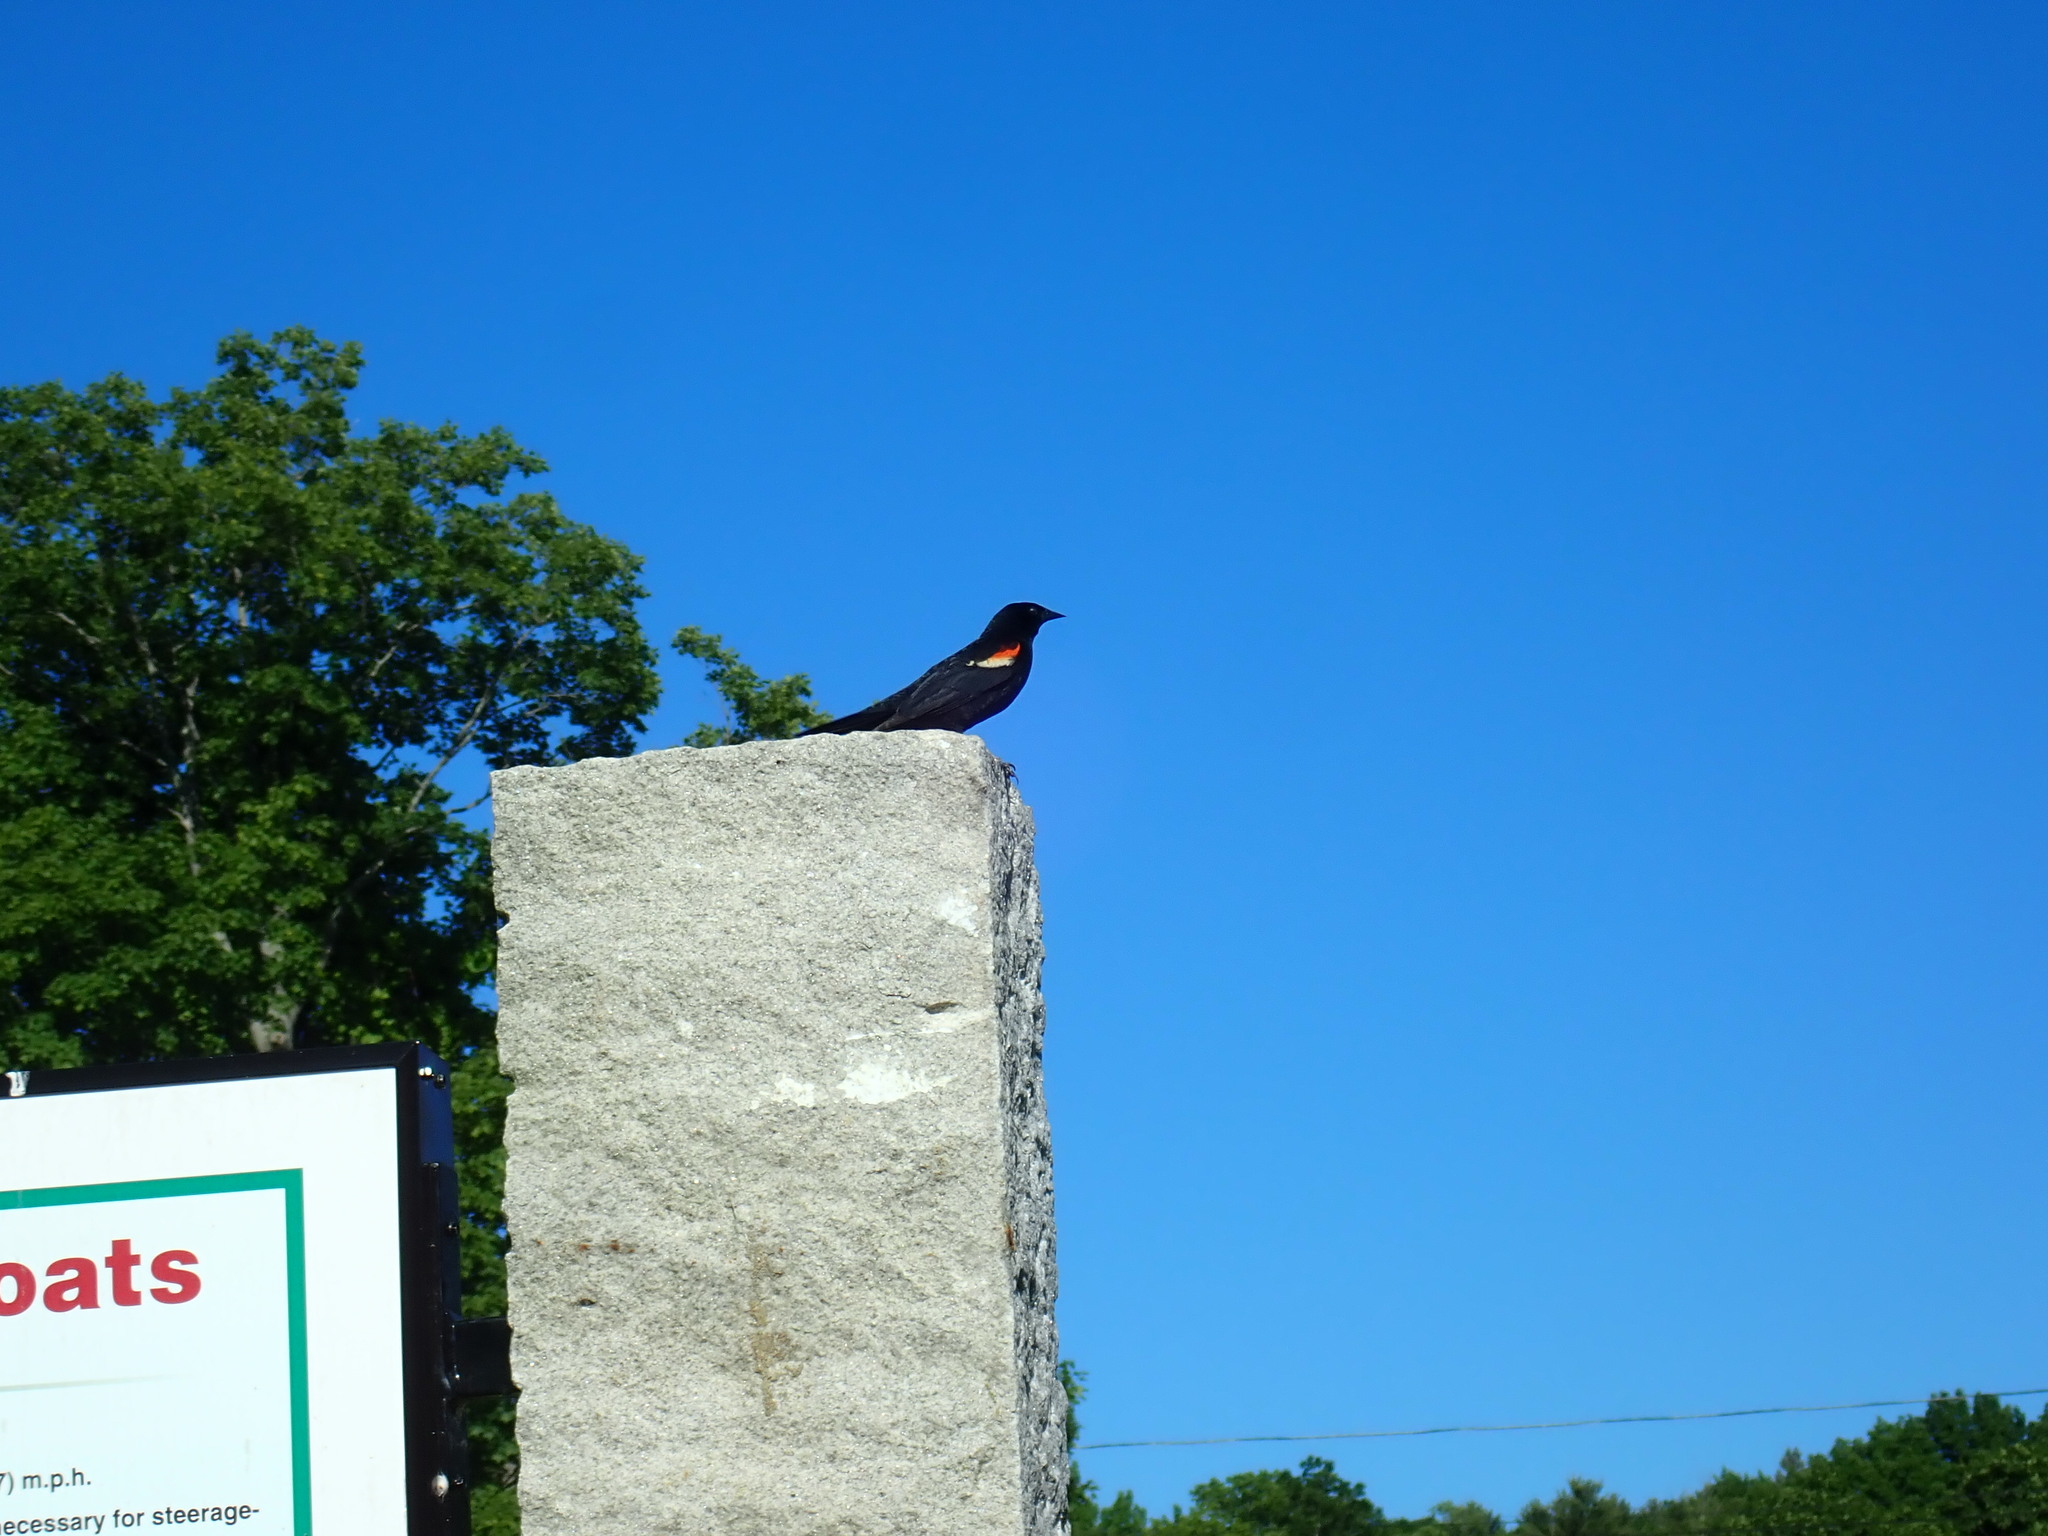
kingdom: Animalia
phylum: Chordata
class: Aves
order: Passeriformes
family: Icteridae
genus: Agelaius
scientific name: Agelaius phoeniceus
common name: Red-winged blackbird
